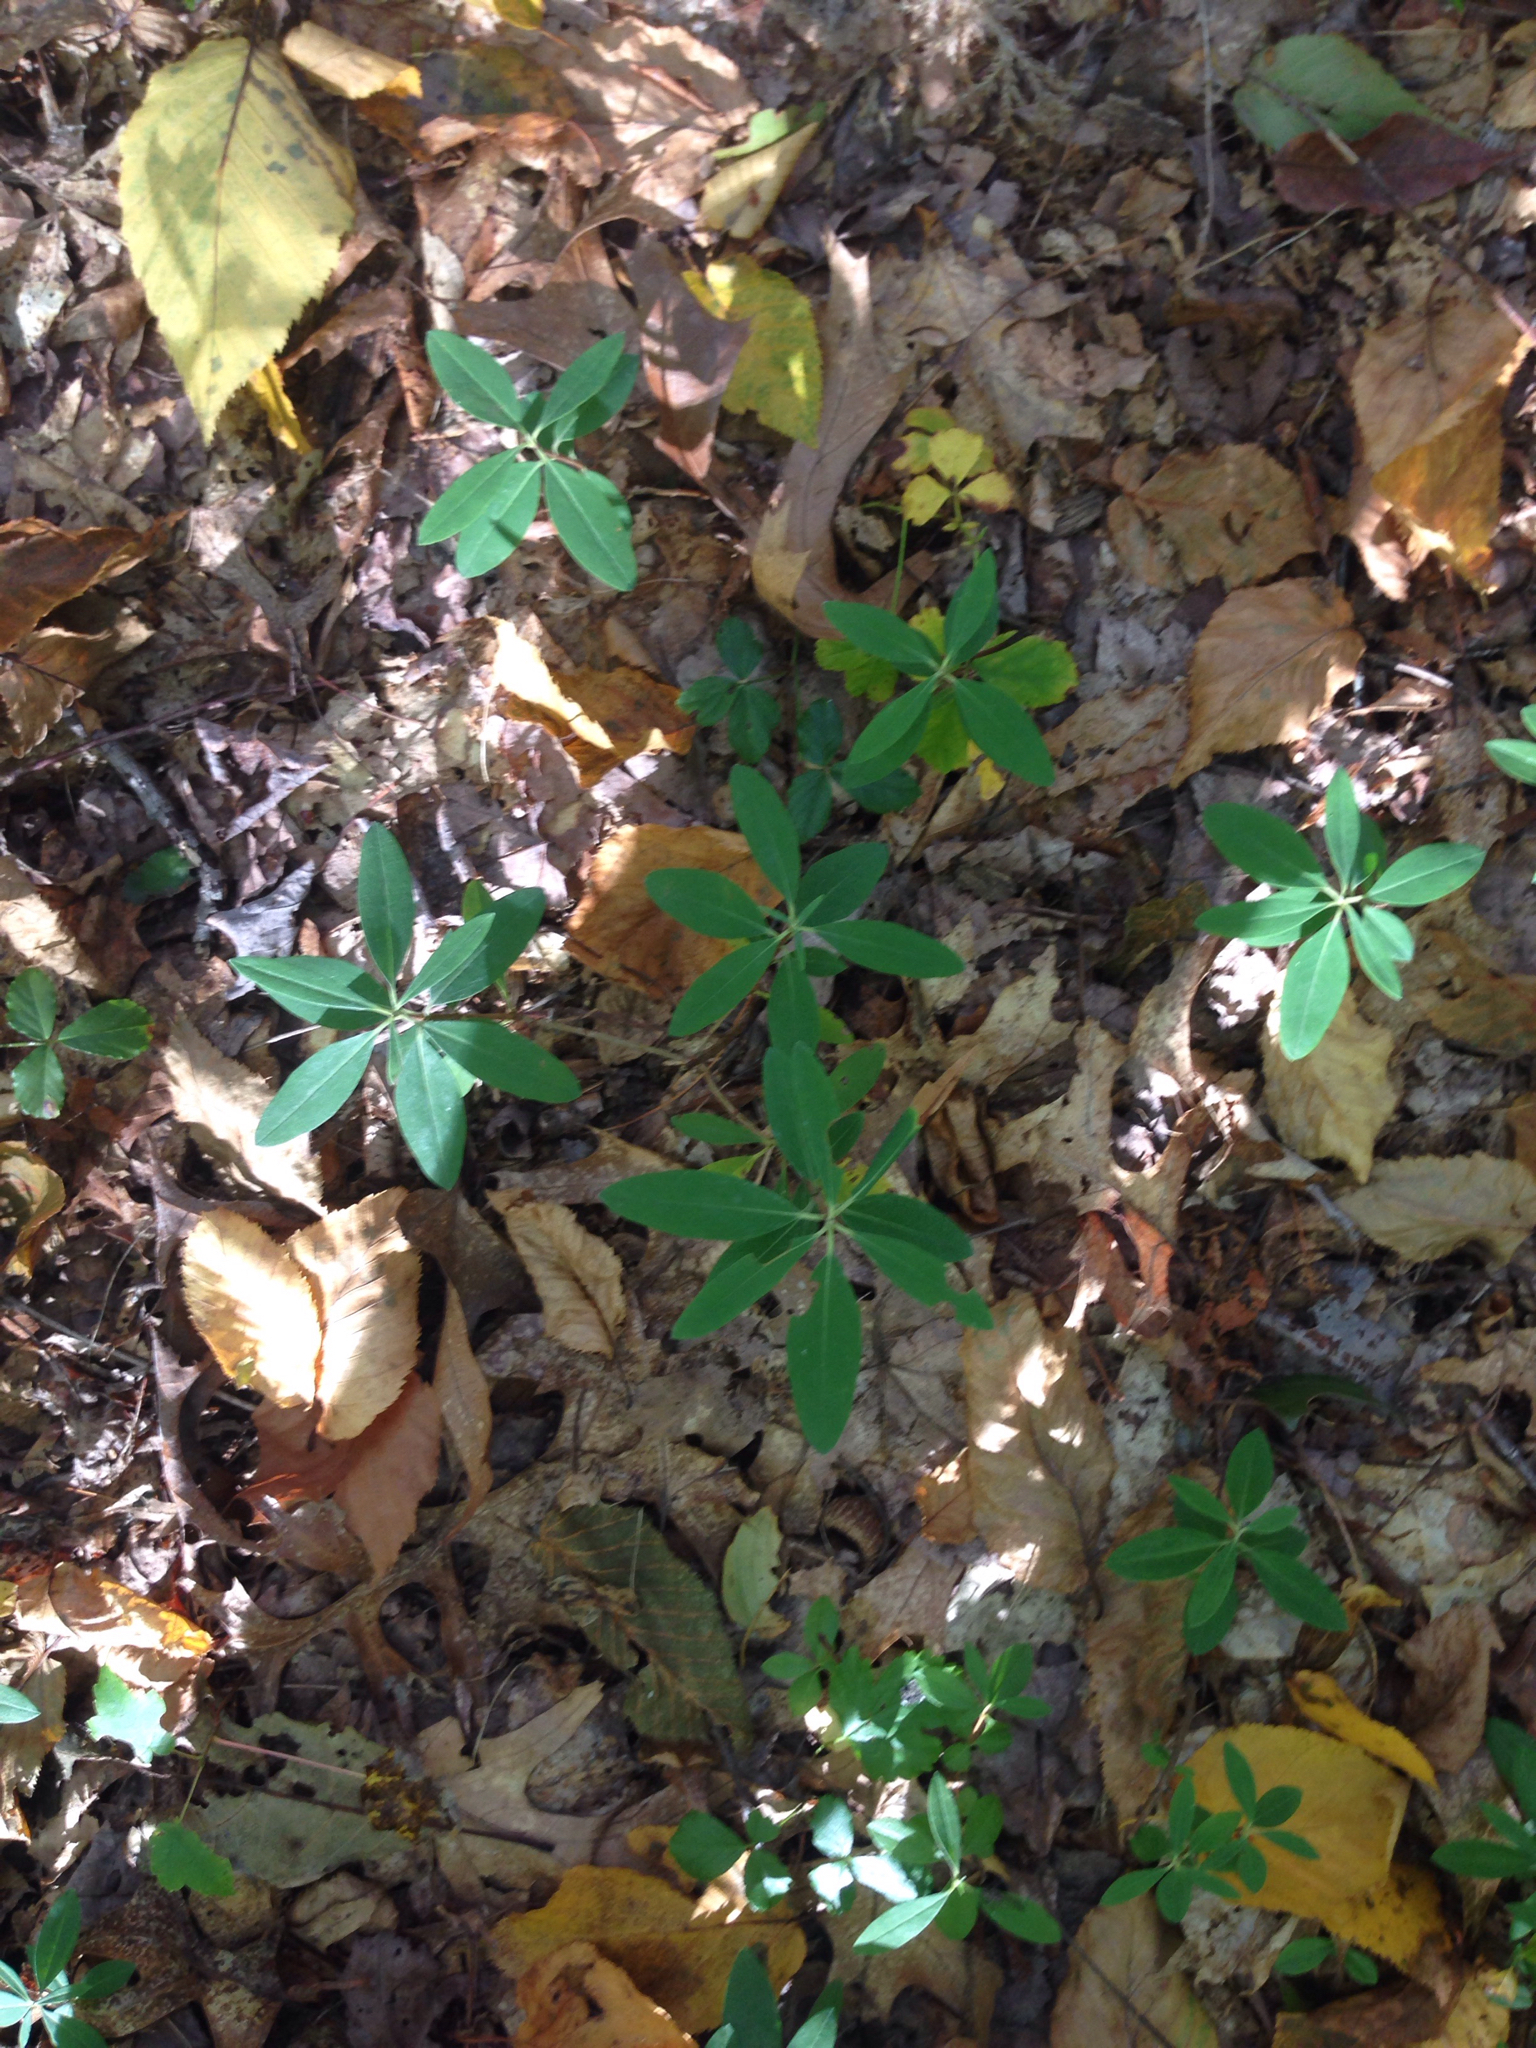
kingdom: Plantae
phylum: Tracheophyta
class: Magnoliopsida
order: Ericales
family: Ericaceae
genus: Kalmia
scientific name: Kalmia angustifolia
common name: Sheep-laurel
